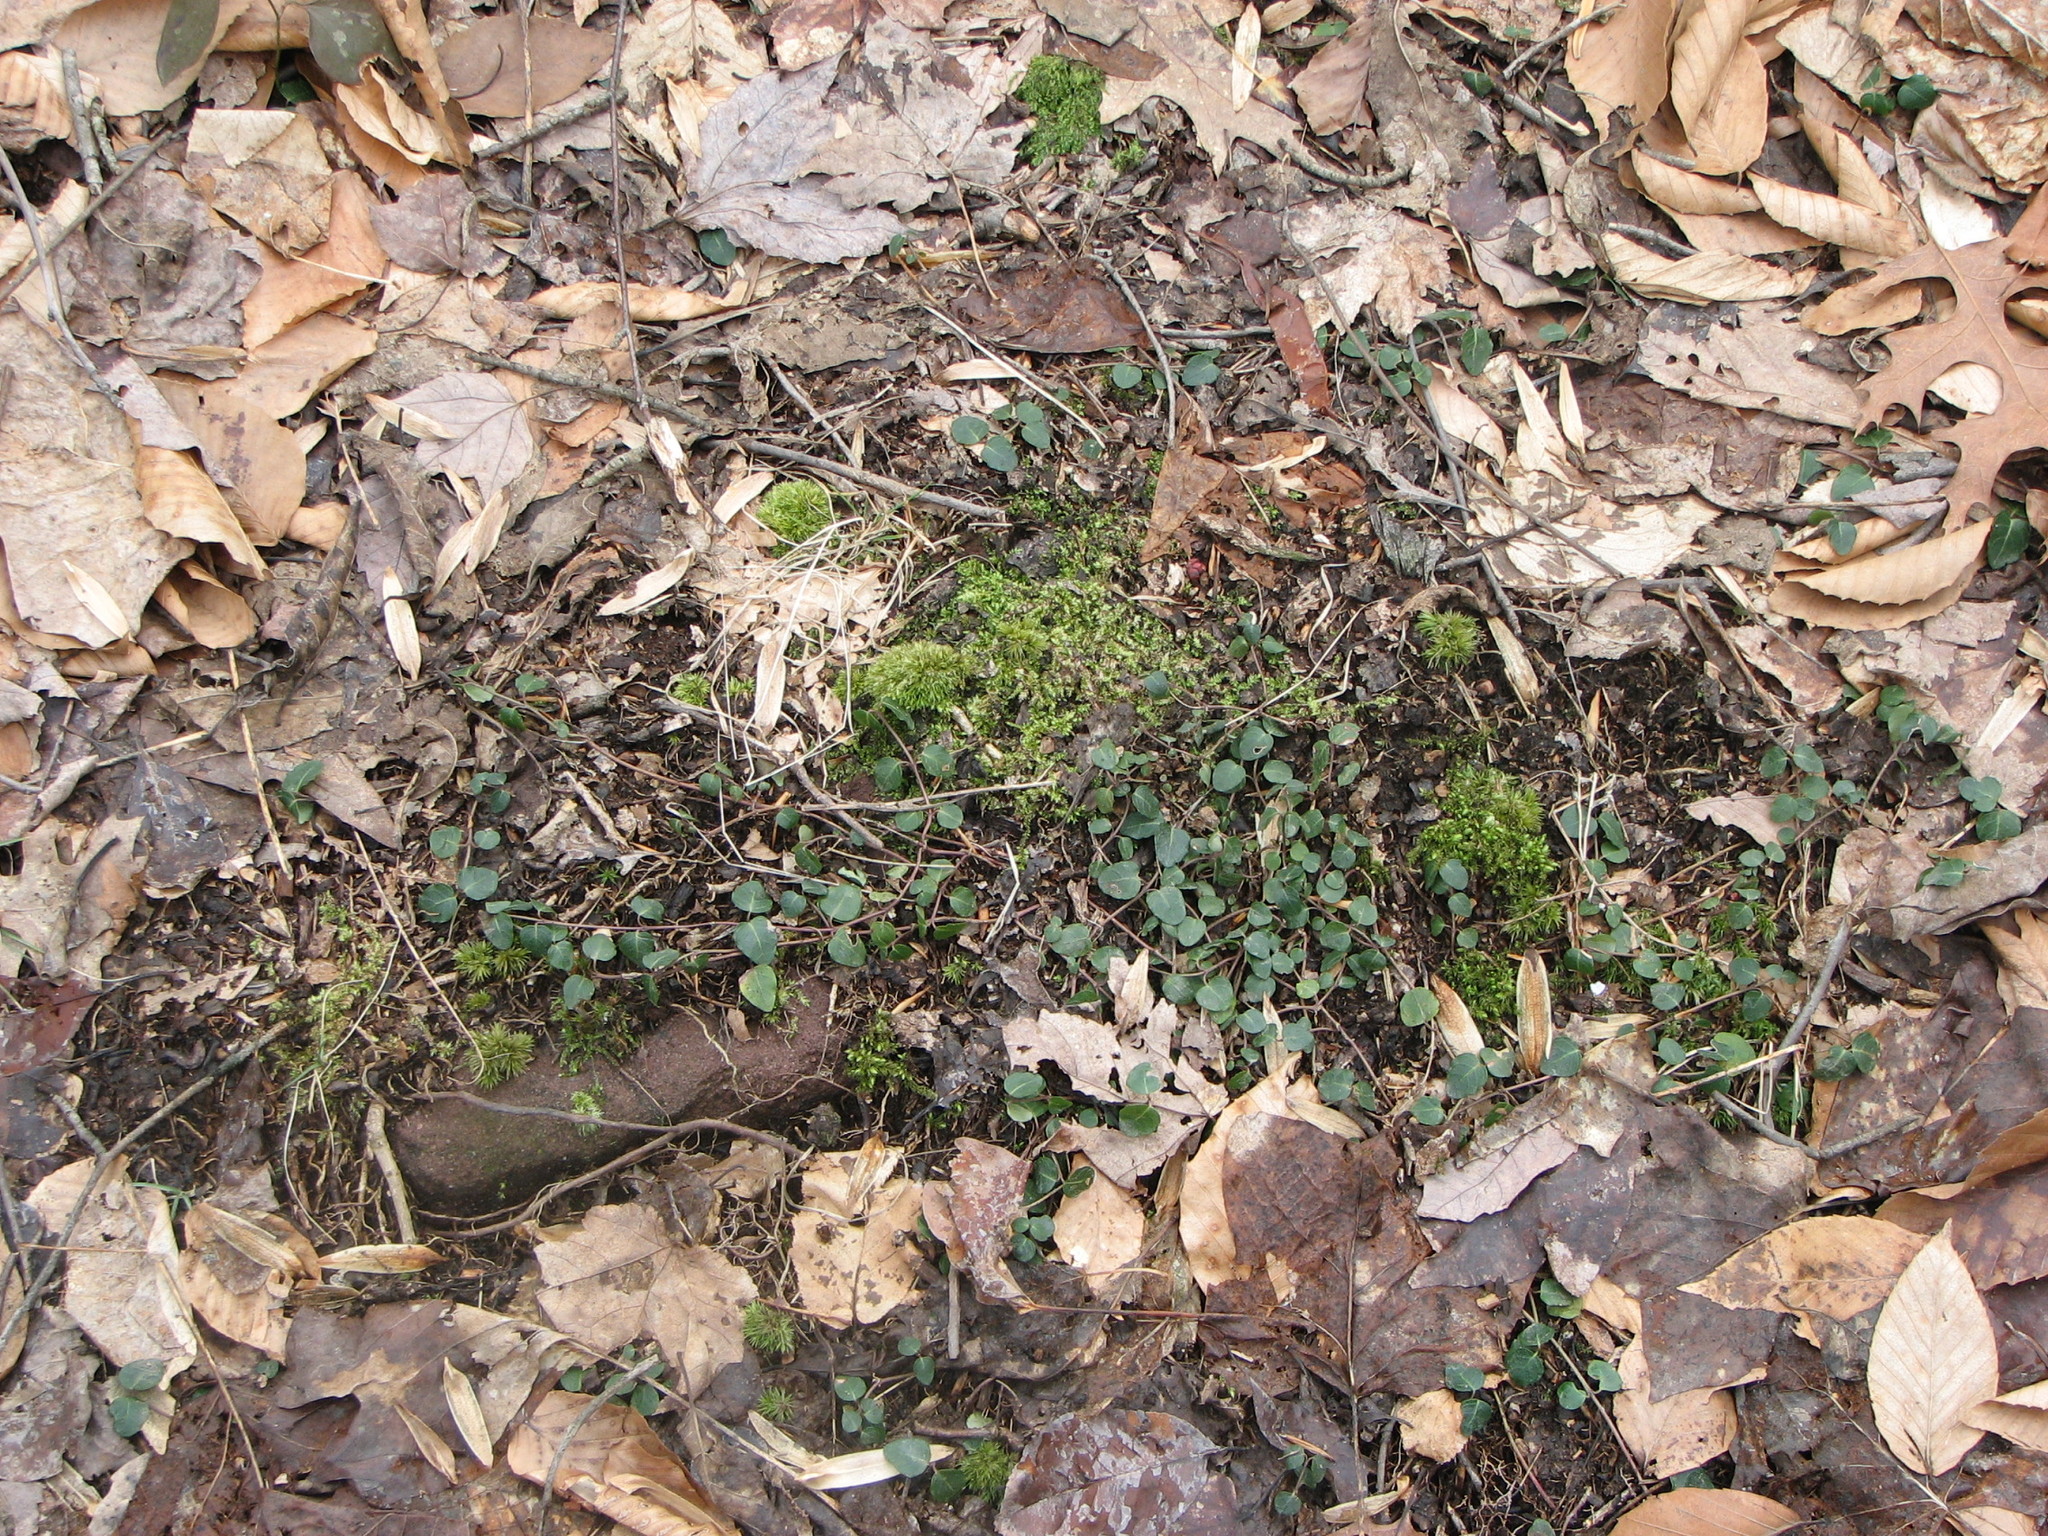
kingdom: Plantae
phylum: Tracheophyta
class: Magnoliopsida
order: Gentianales
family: Rubiaceae
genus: Mitchella
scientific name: Mitchella repens
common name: Partridge-berry
